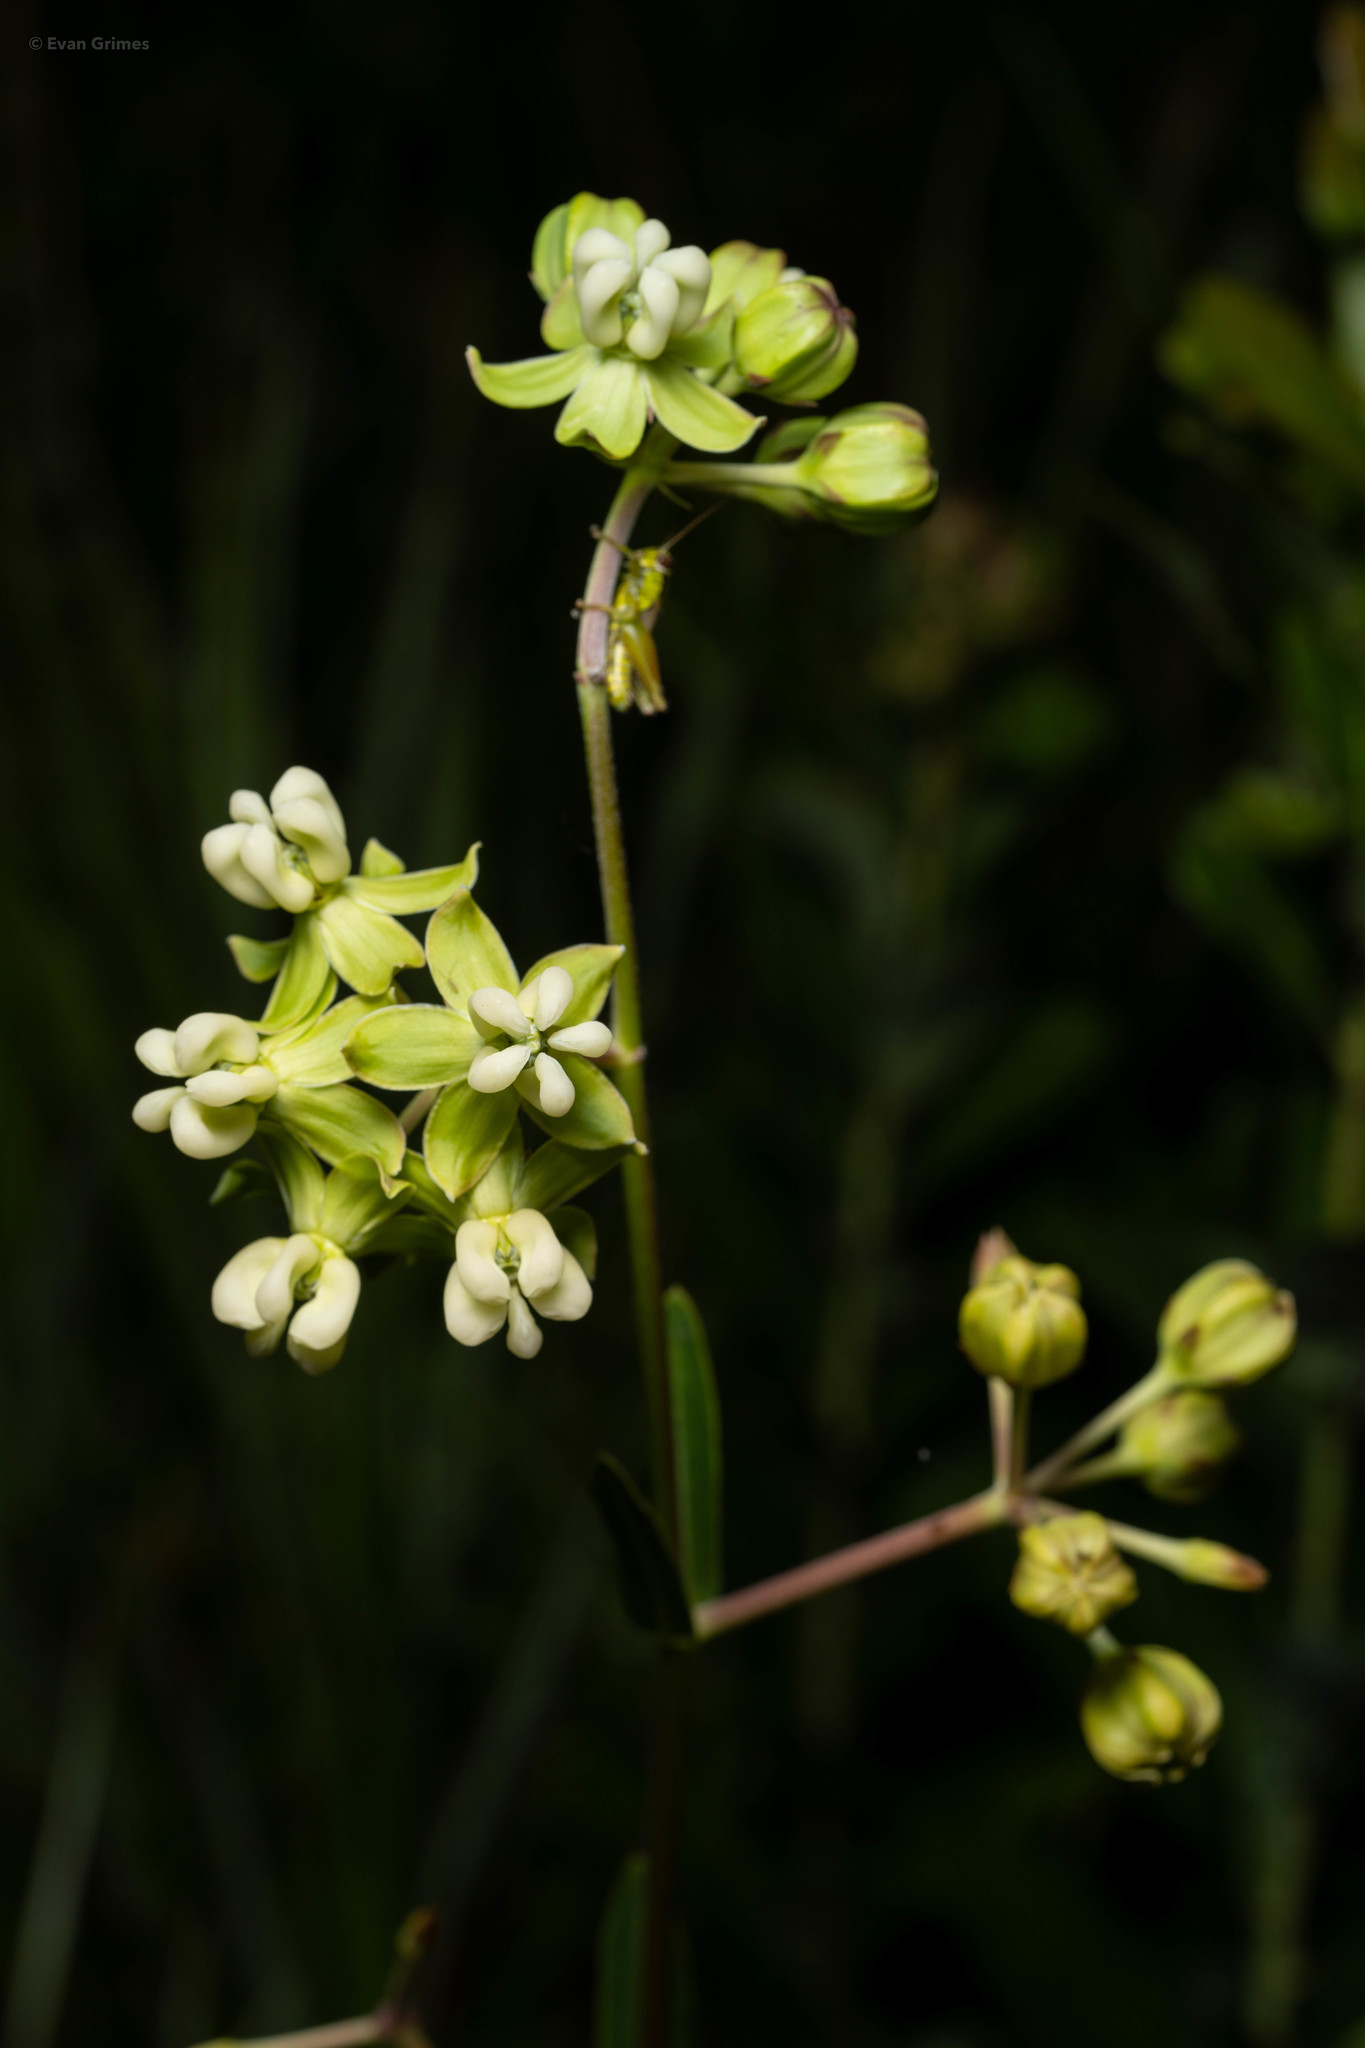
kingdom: Plantae
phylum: Tracheophyta
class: Magnoliopsida
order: Gentianales
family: Apocynaceae
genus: Asclepias
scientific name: Asclepias connivens
